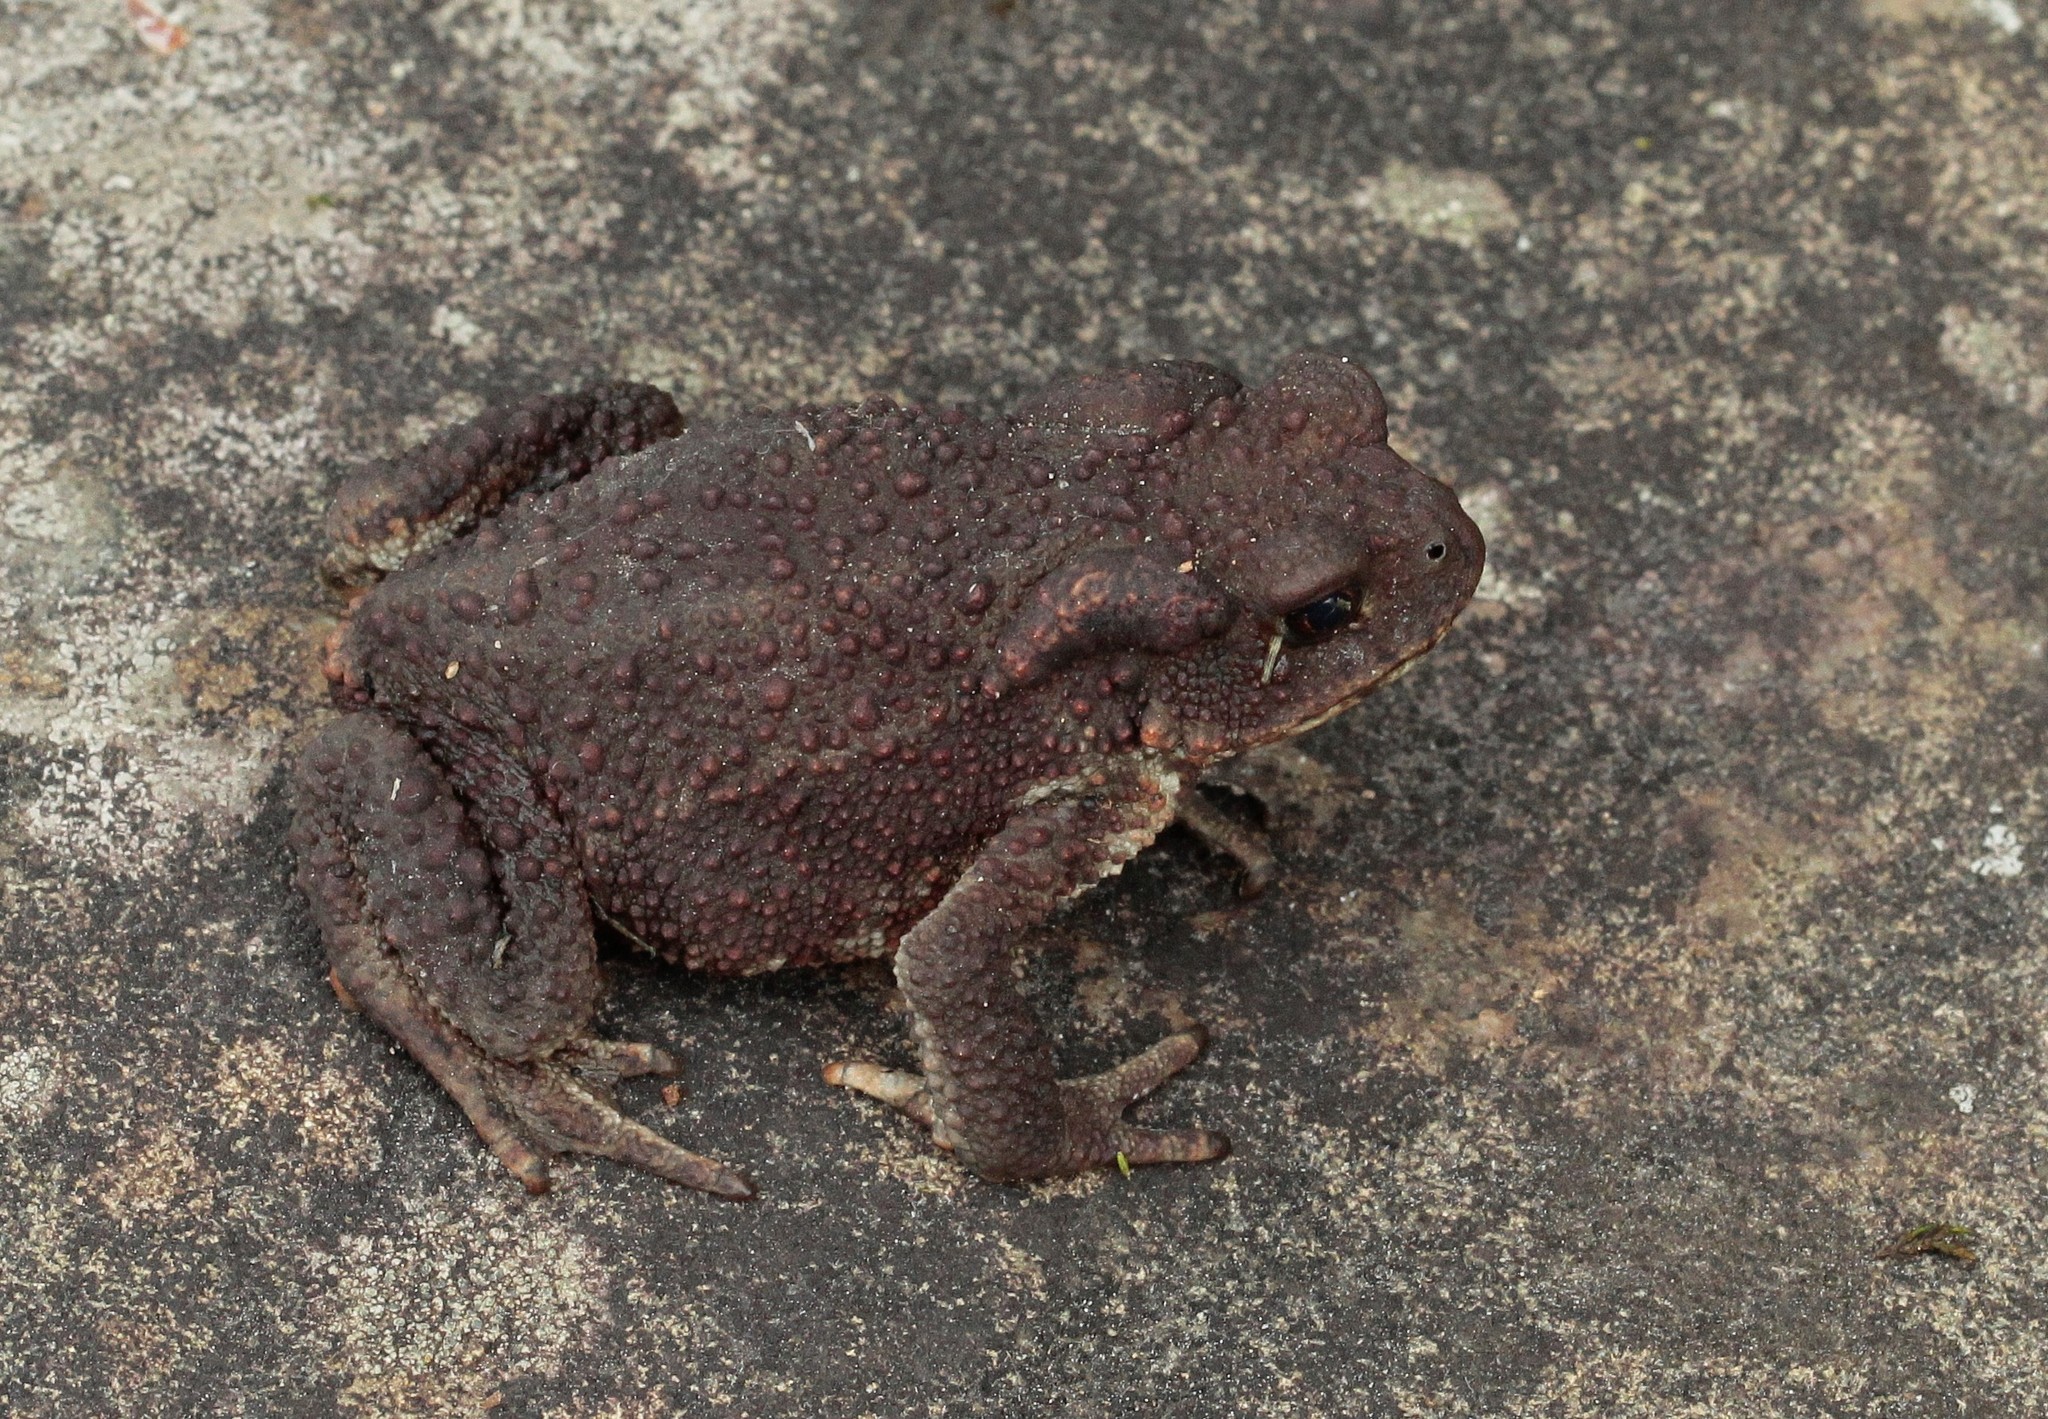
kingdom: Animalia
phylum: Chordata
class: Amphibia
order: Anura
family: Bufonidae
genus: Bufo
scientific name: Bufo bufo
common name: Common toad
